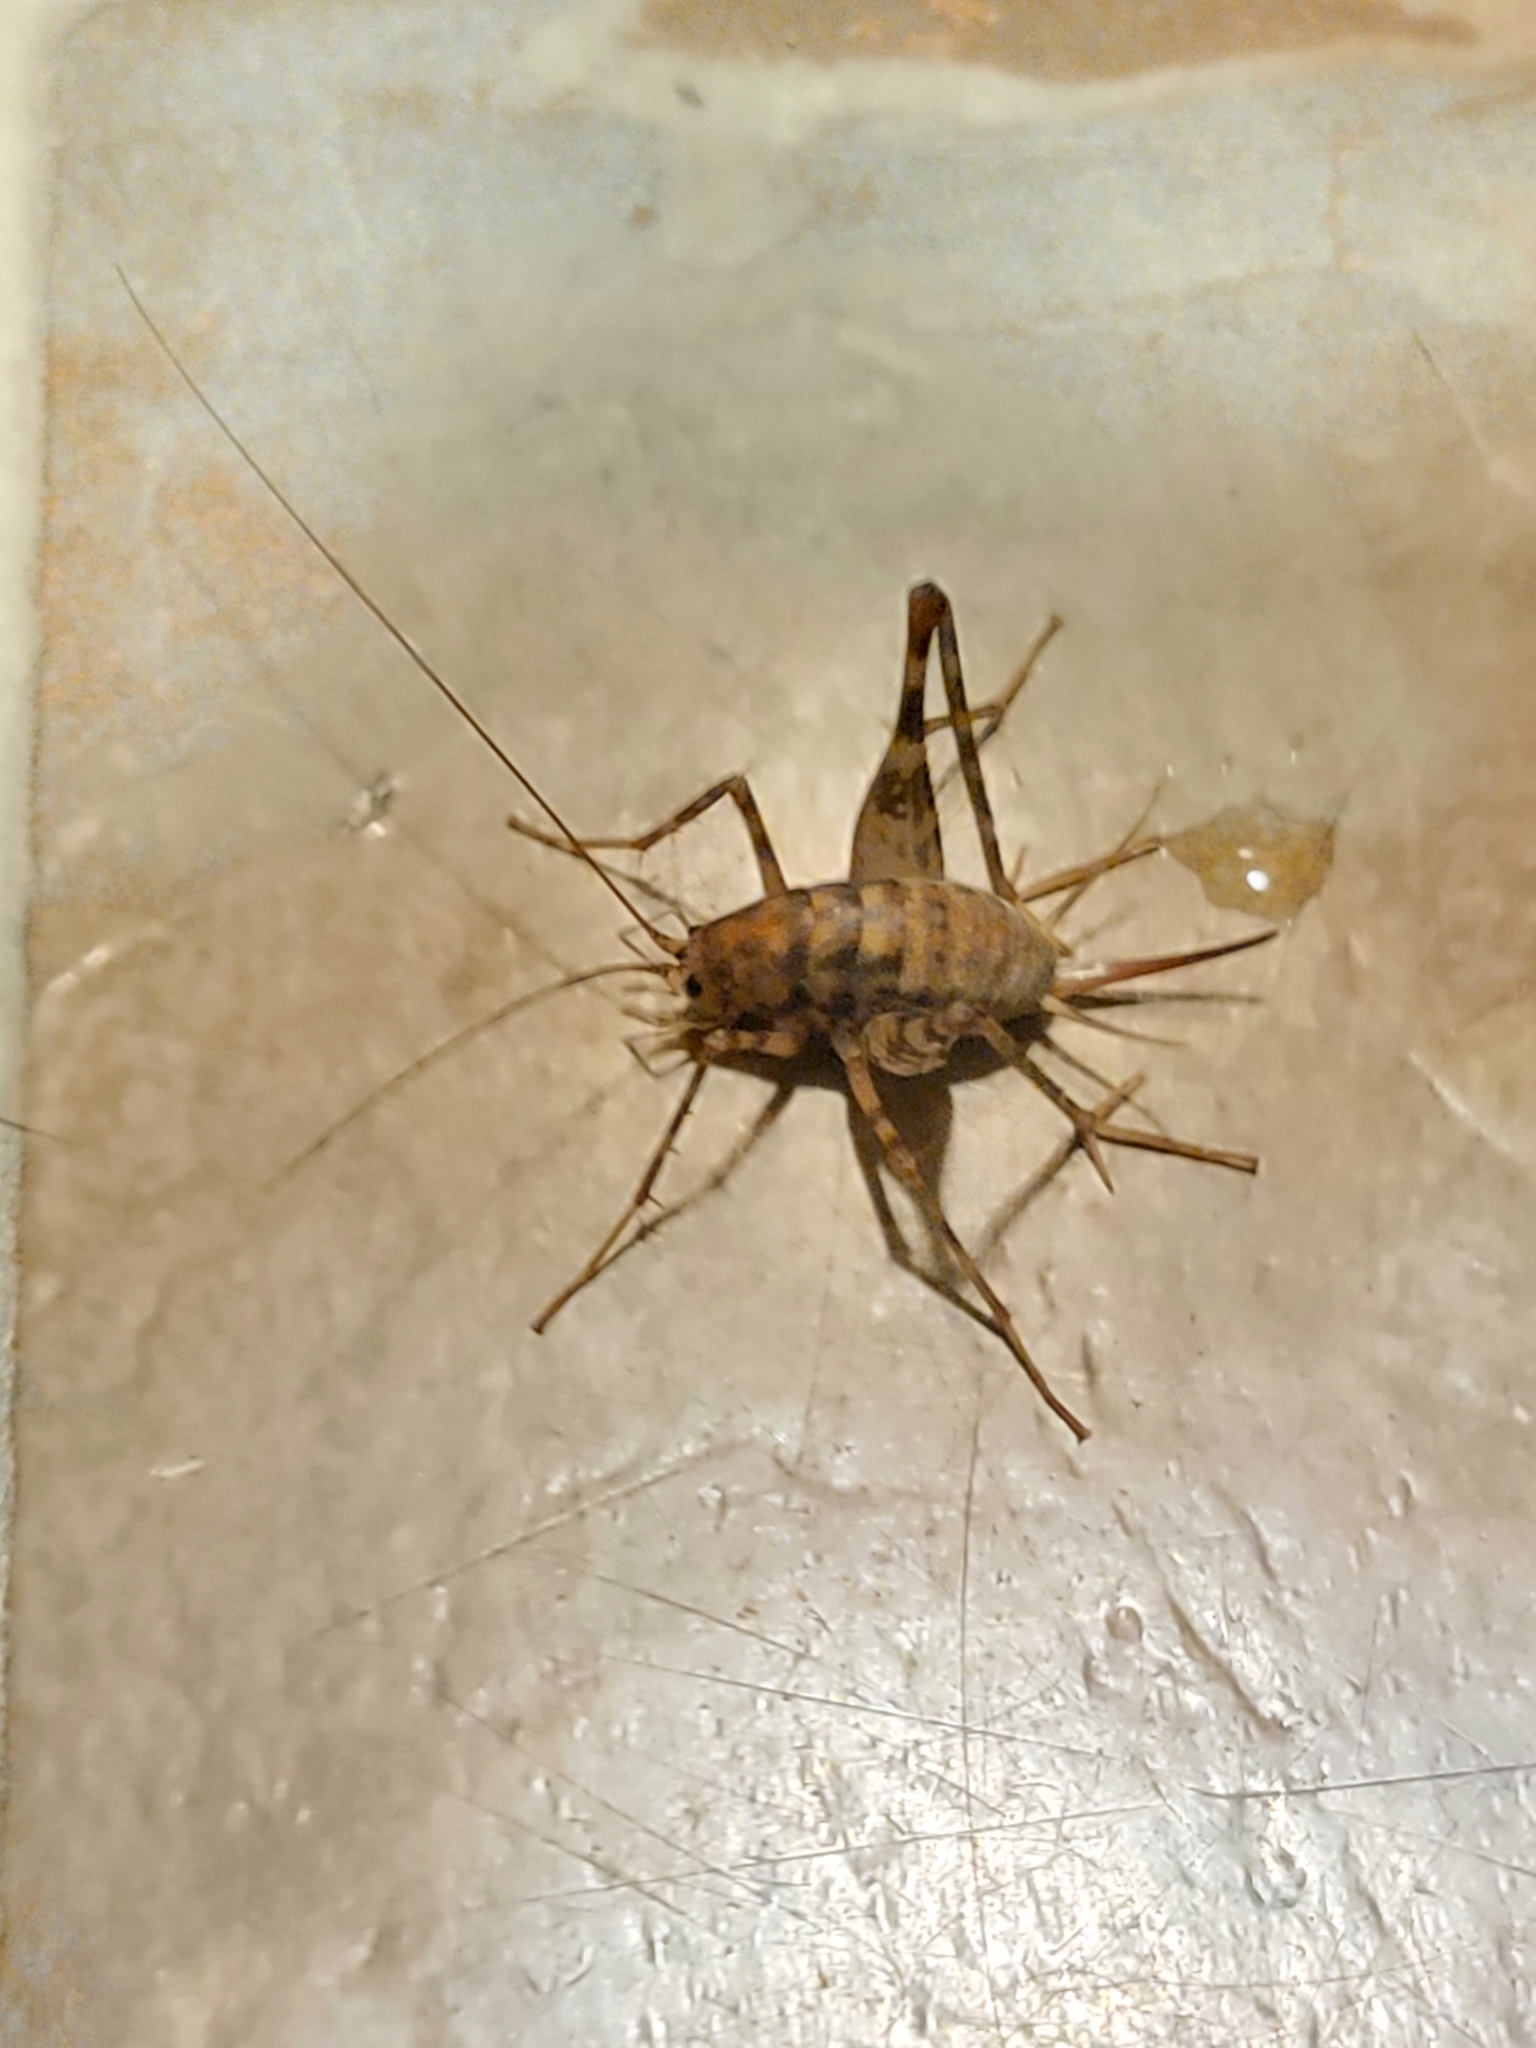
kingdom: Animalia
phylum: Arthropoda
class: Insecta
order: Orthoptera
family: Rhaphidophoridae
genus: Tachycines
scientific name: Tachycines asynamorus
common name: Greenhouse camel cricket
